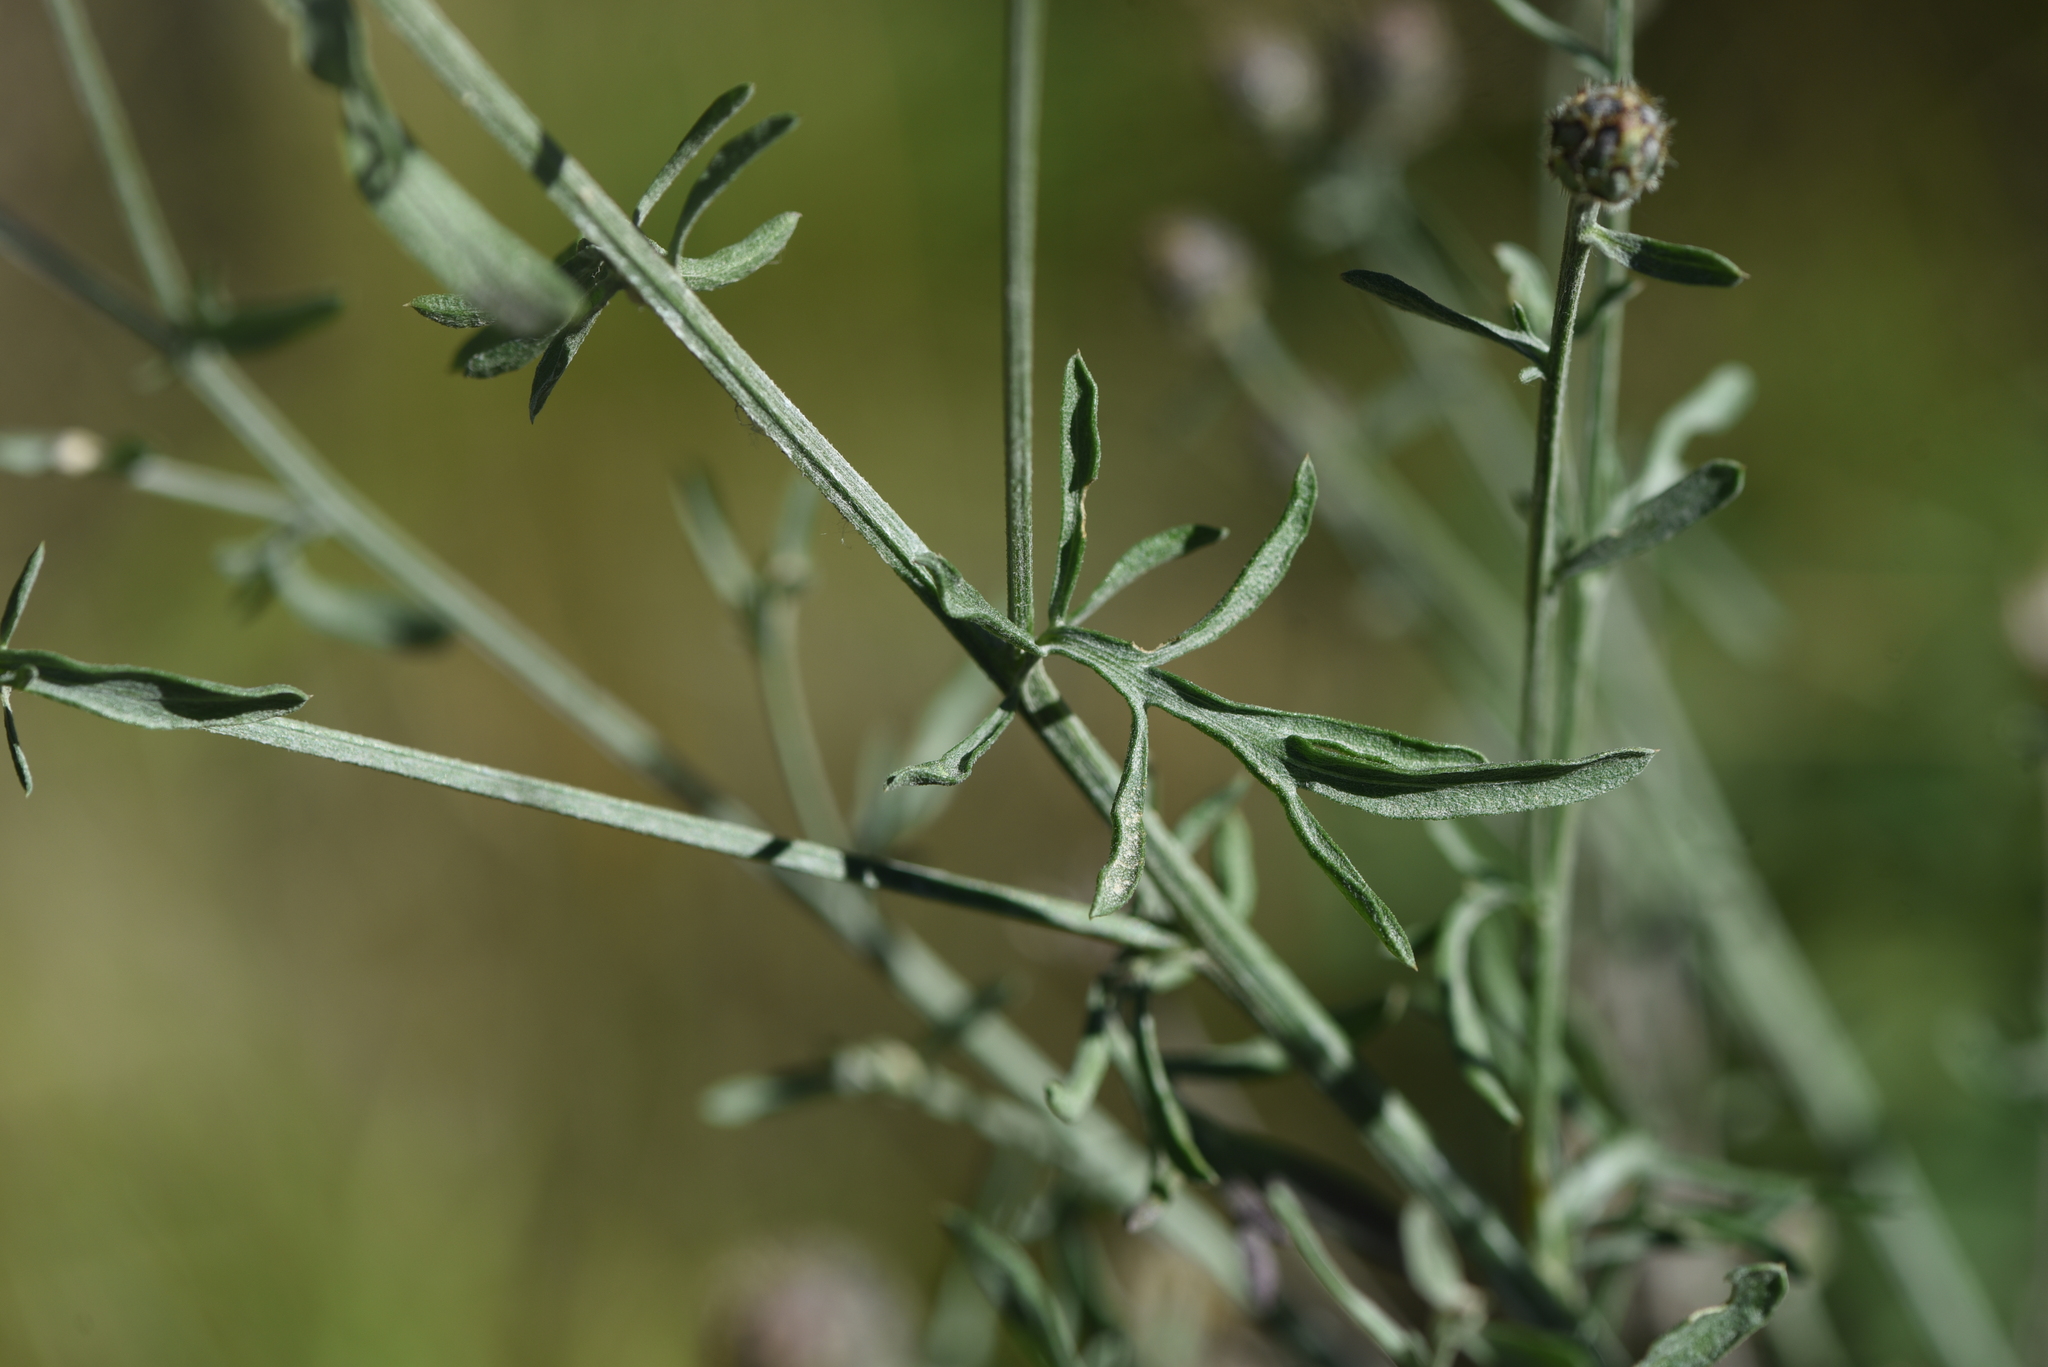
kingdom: Plantae
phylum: Tracheophyta
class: Magnoliopsida
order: Asterales
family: Asteraceae
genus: Centaurea
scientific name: Centaurea stoebe
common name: Spotted knapweed
